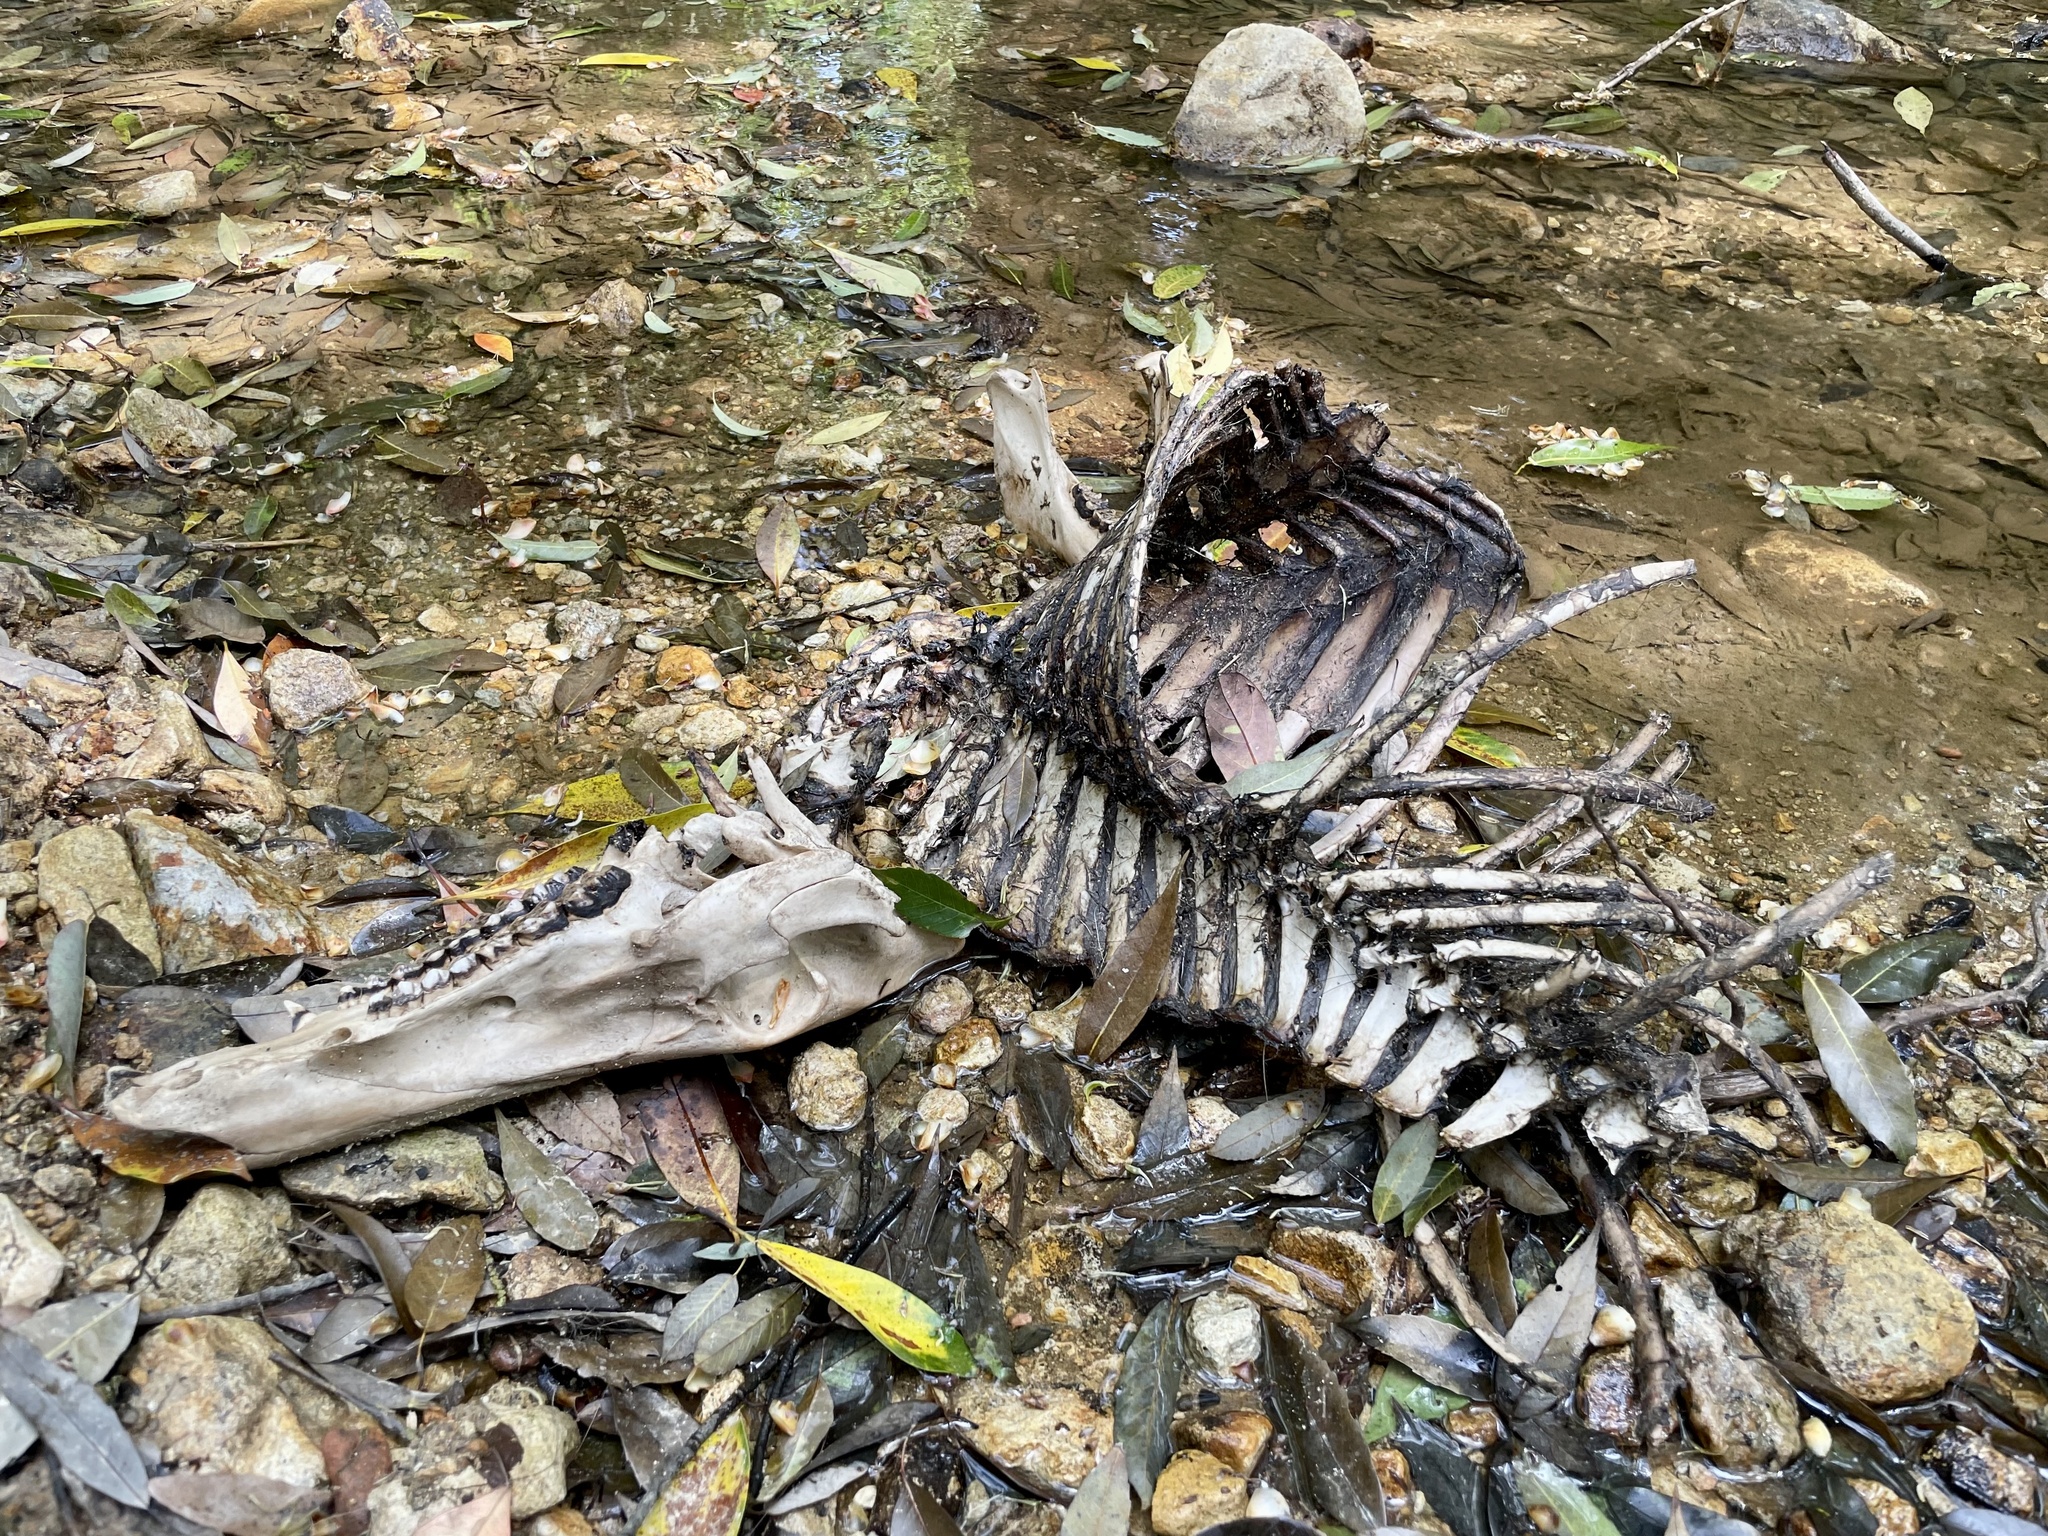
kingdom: Animalia
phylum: Chordata
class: Mammalia
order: Artiodactyla
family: Suidae
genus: Sus
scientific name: Sus scrofa
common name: Wild boar
